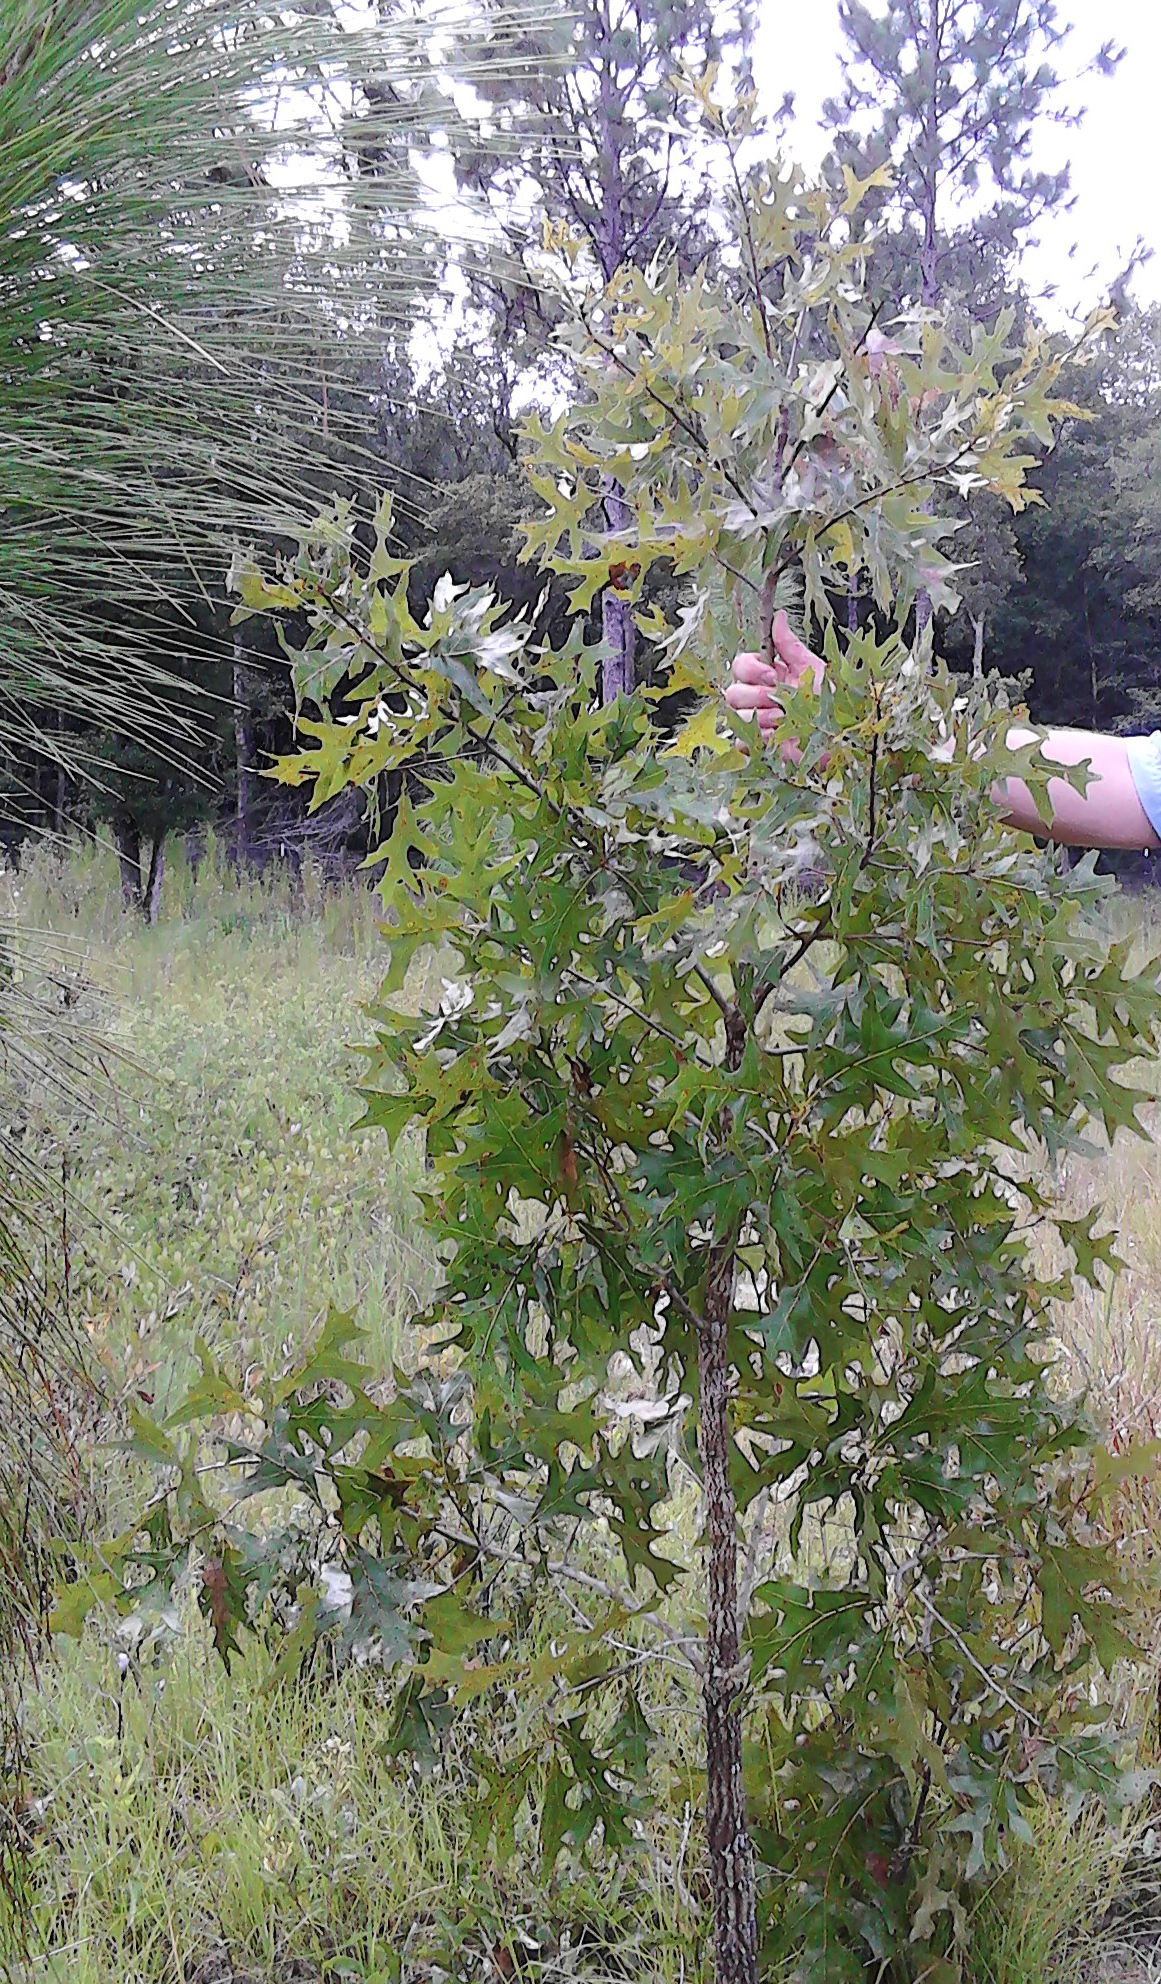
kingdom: Plantae
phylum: Tracheophyta
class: Magnoliopsida
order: Fagales
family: Fagaceae
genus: Quercus
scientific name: Quercus laevis
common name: Turkey oak
